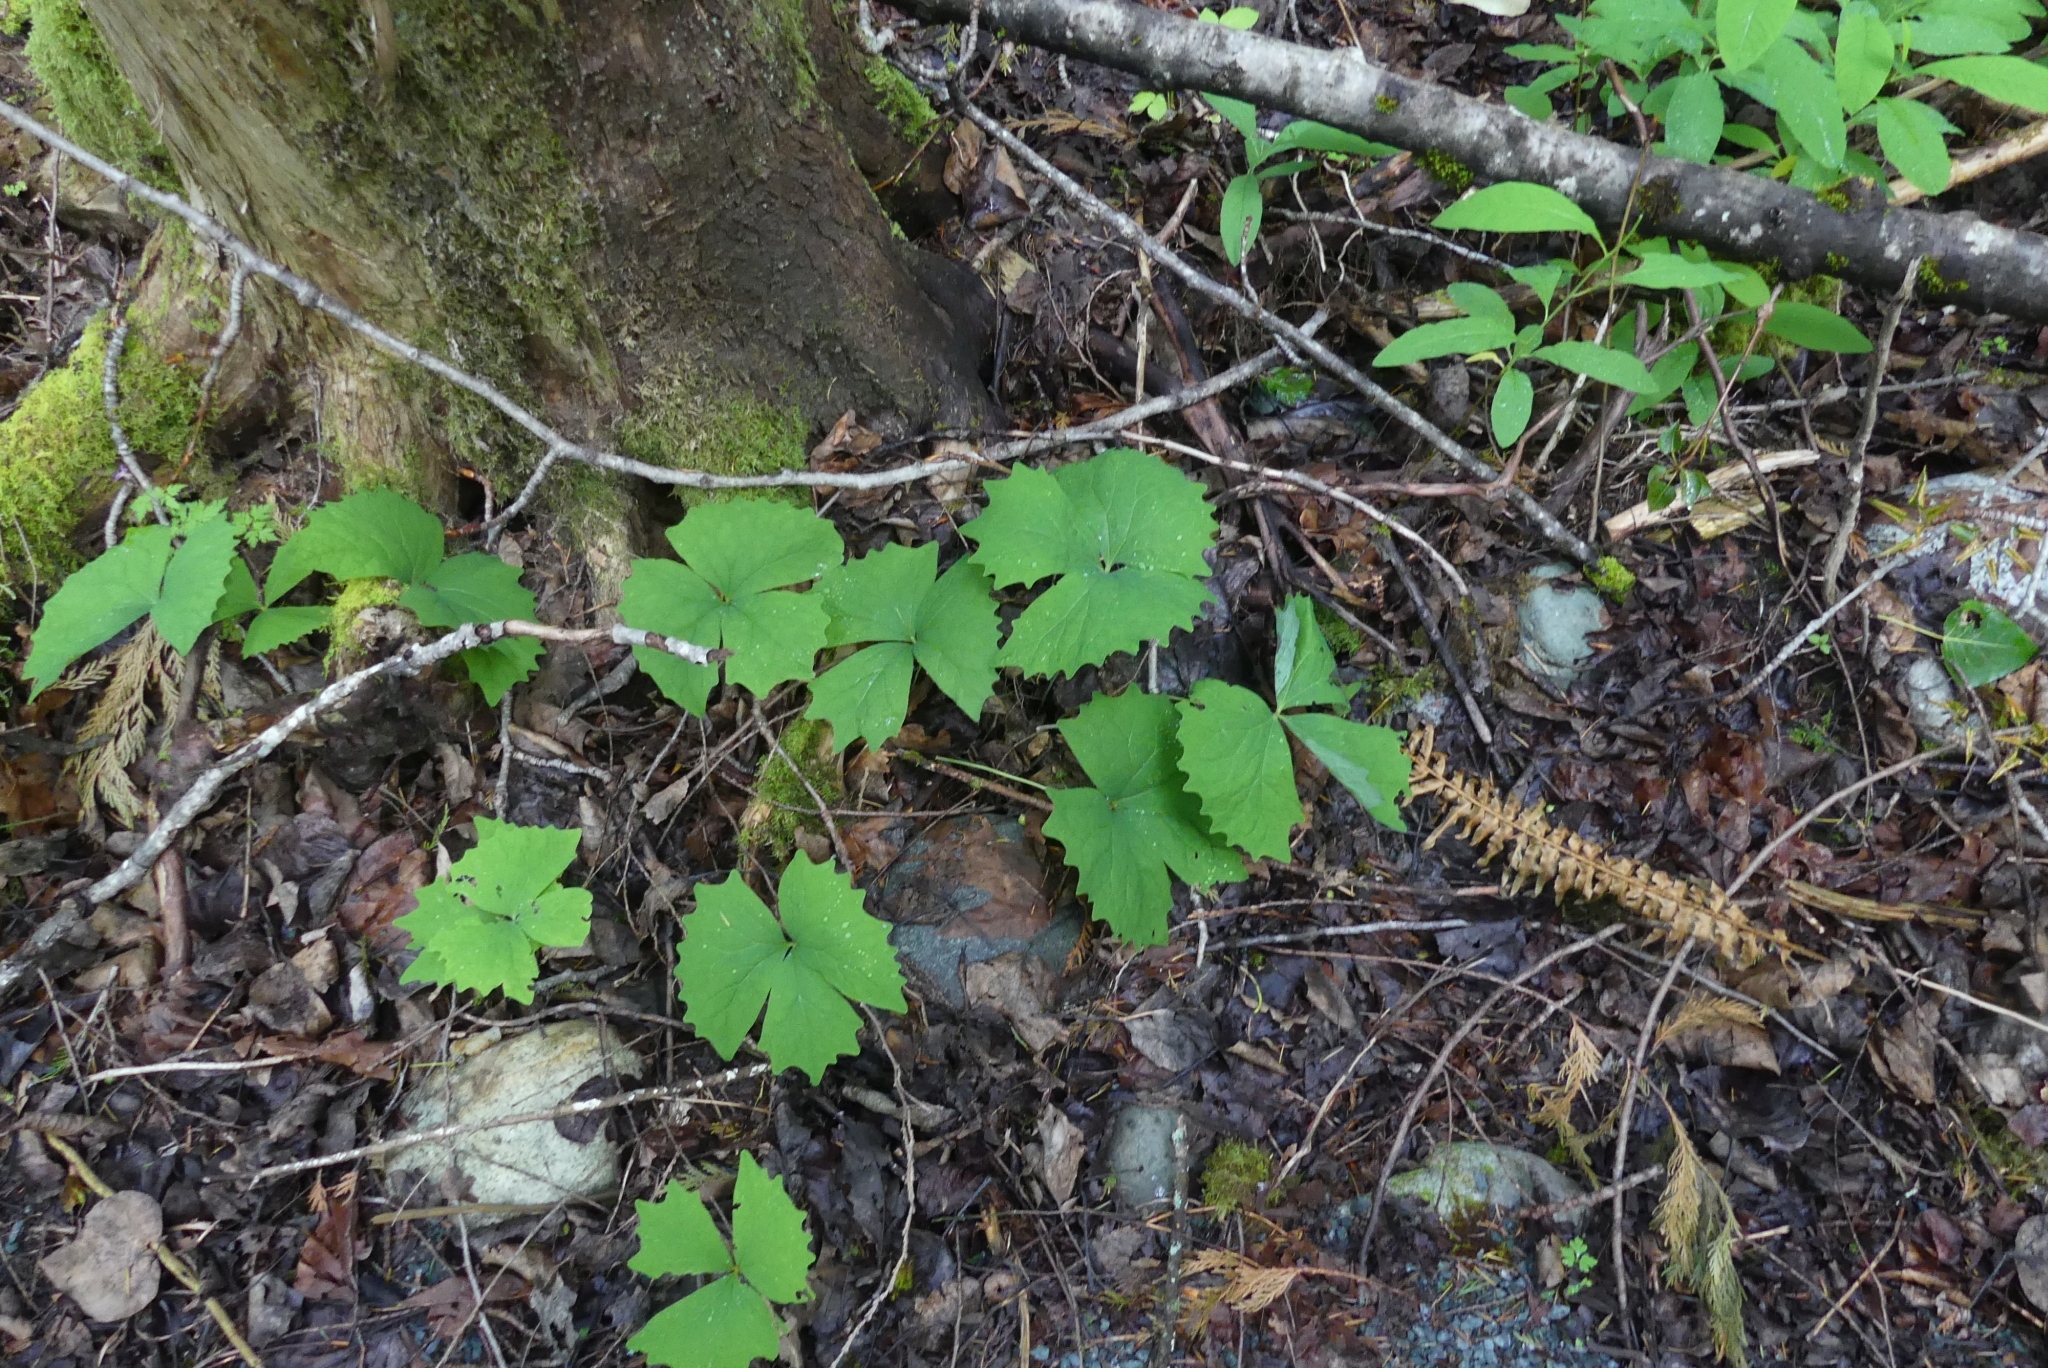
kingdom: Plantae
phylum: Tracheophyta
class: Magnoliopsida
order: Ranunculales
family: Berberidaceae
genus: Achlys
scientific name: Achlys triphylla
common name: Vanilla-leaf
